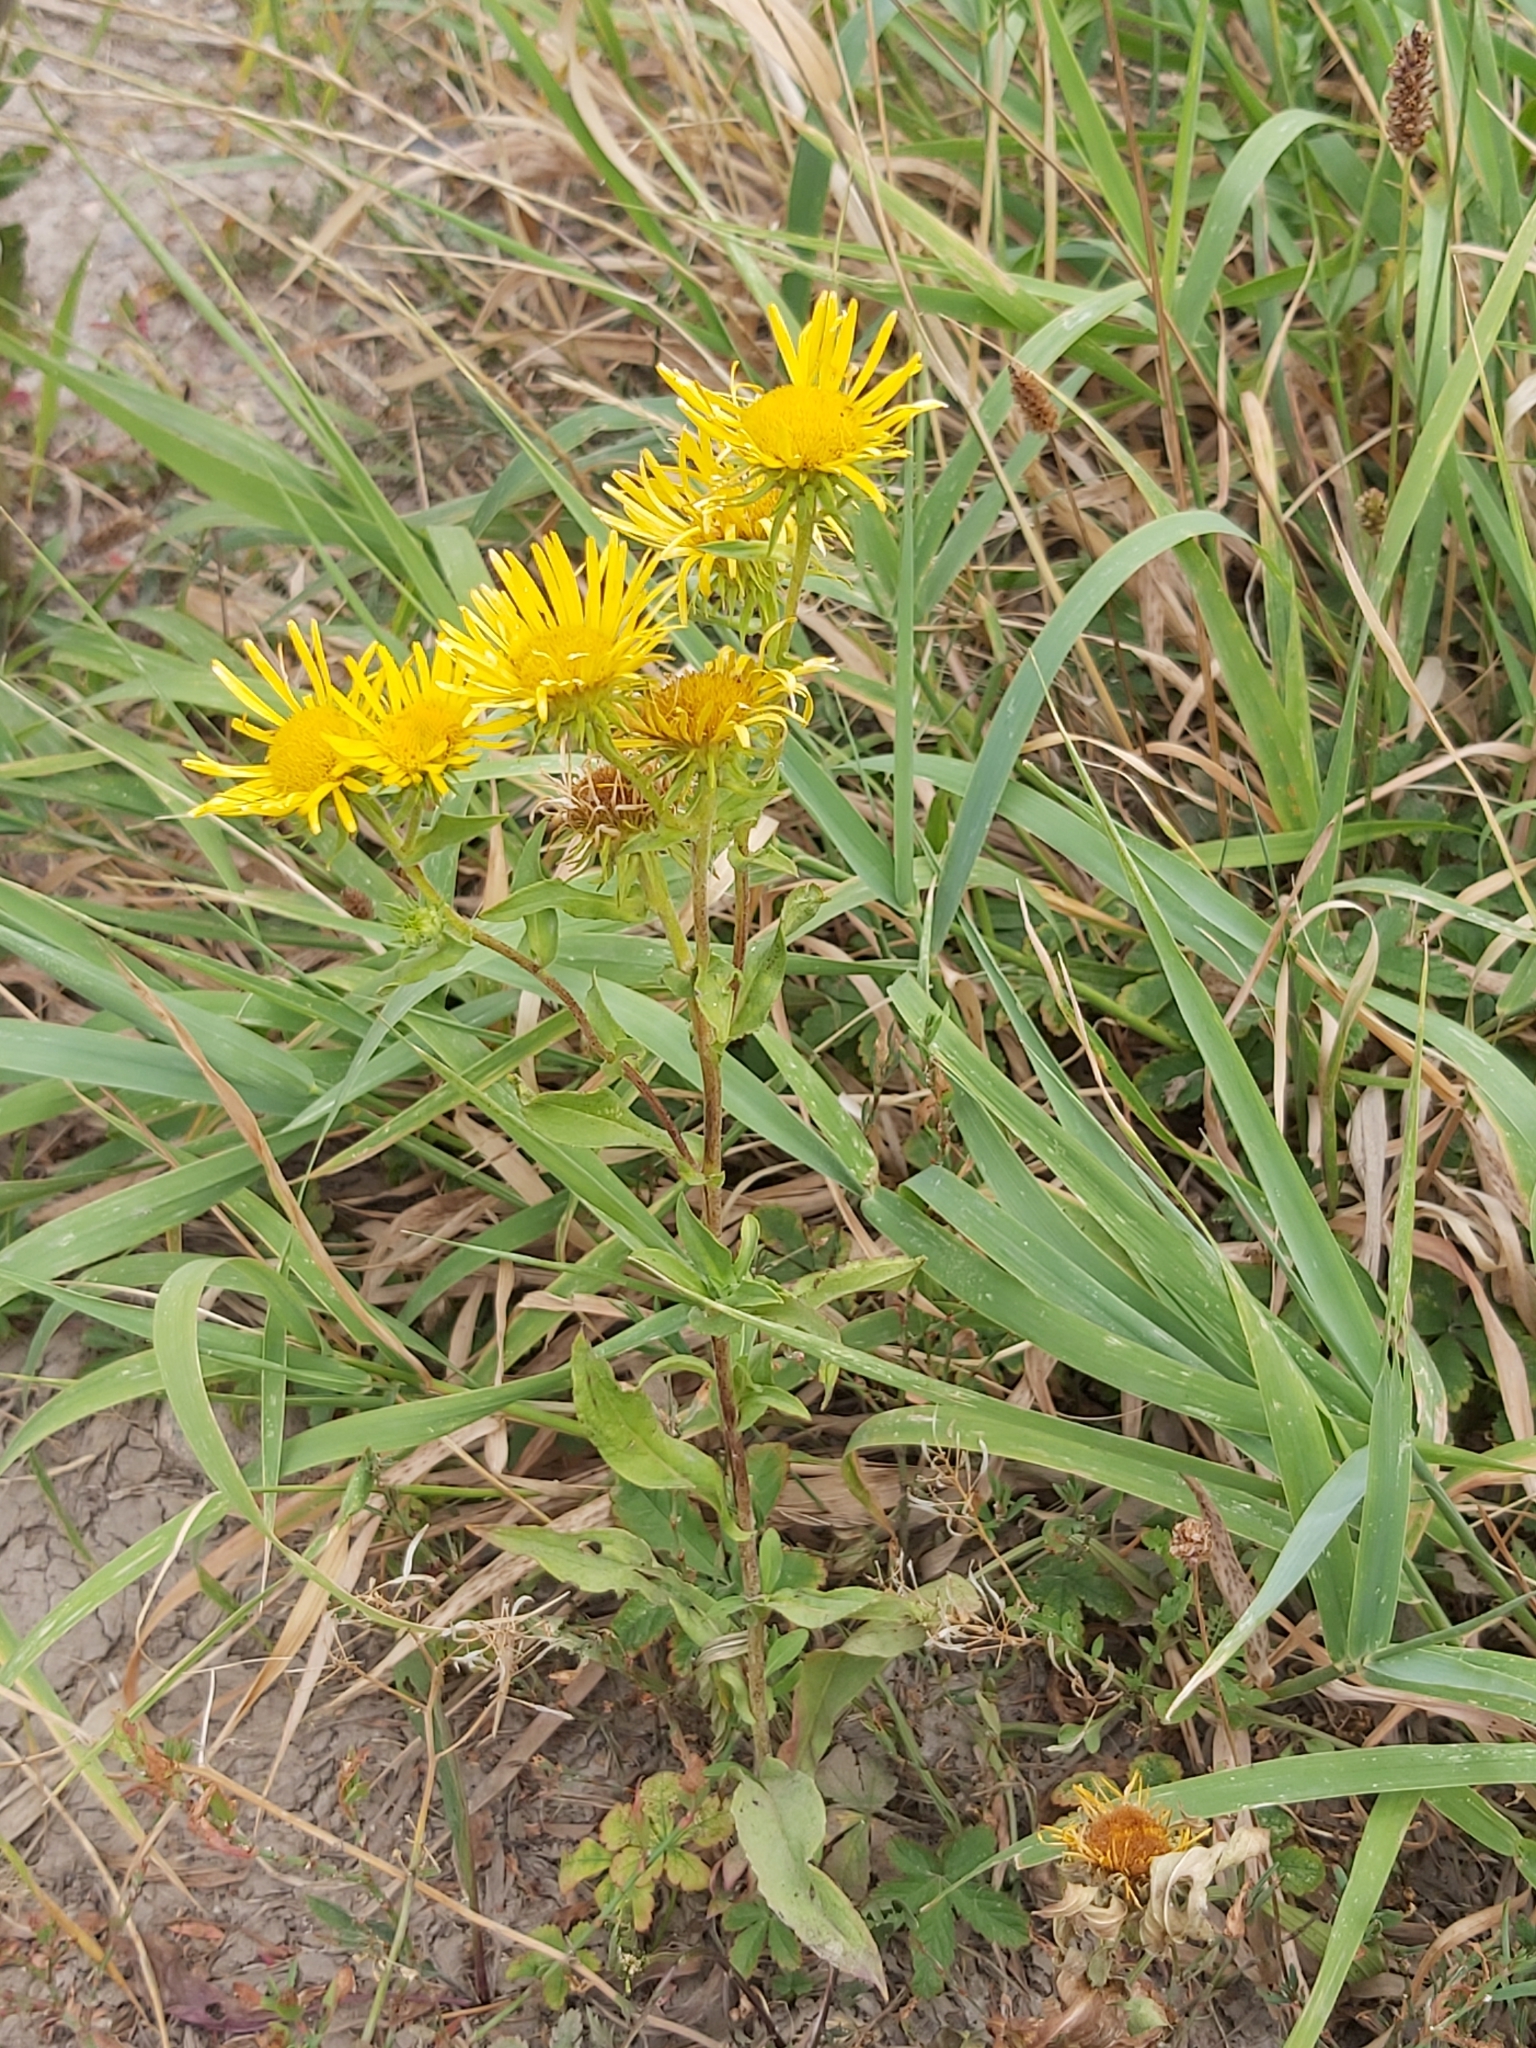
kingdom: Plantae
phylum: Tracheophyta
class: Magnoliopsida
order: Asterales
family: Asteraceae
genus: Pentanema
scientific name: Pentanema britannicum
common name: British elecampane
